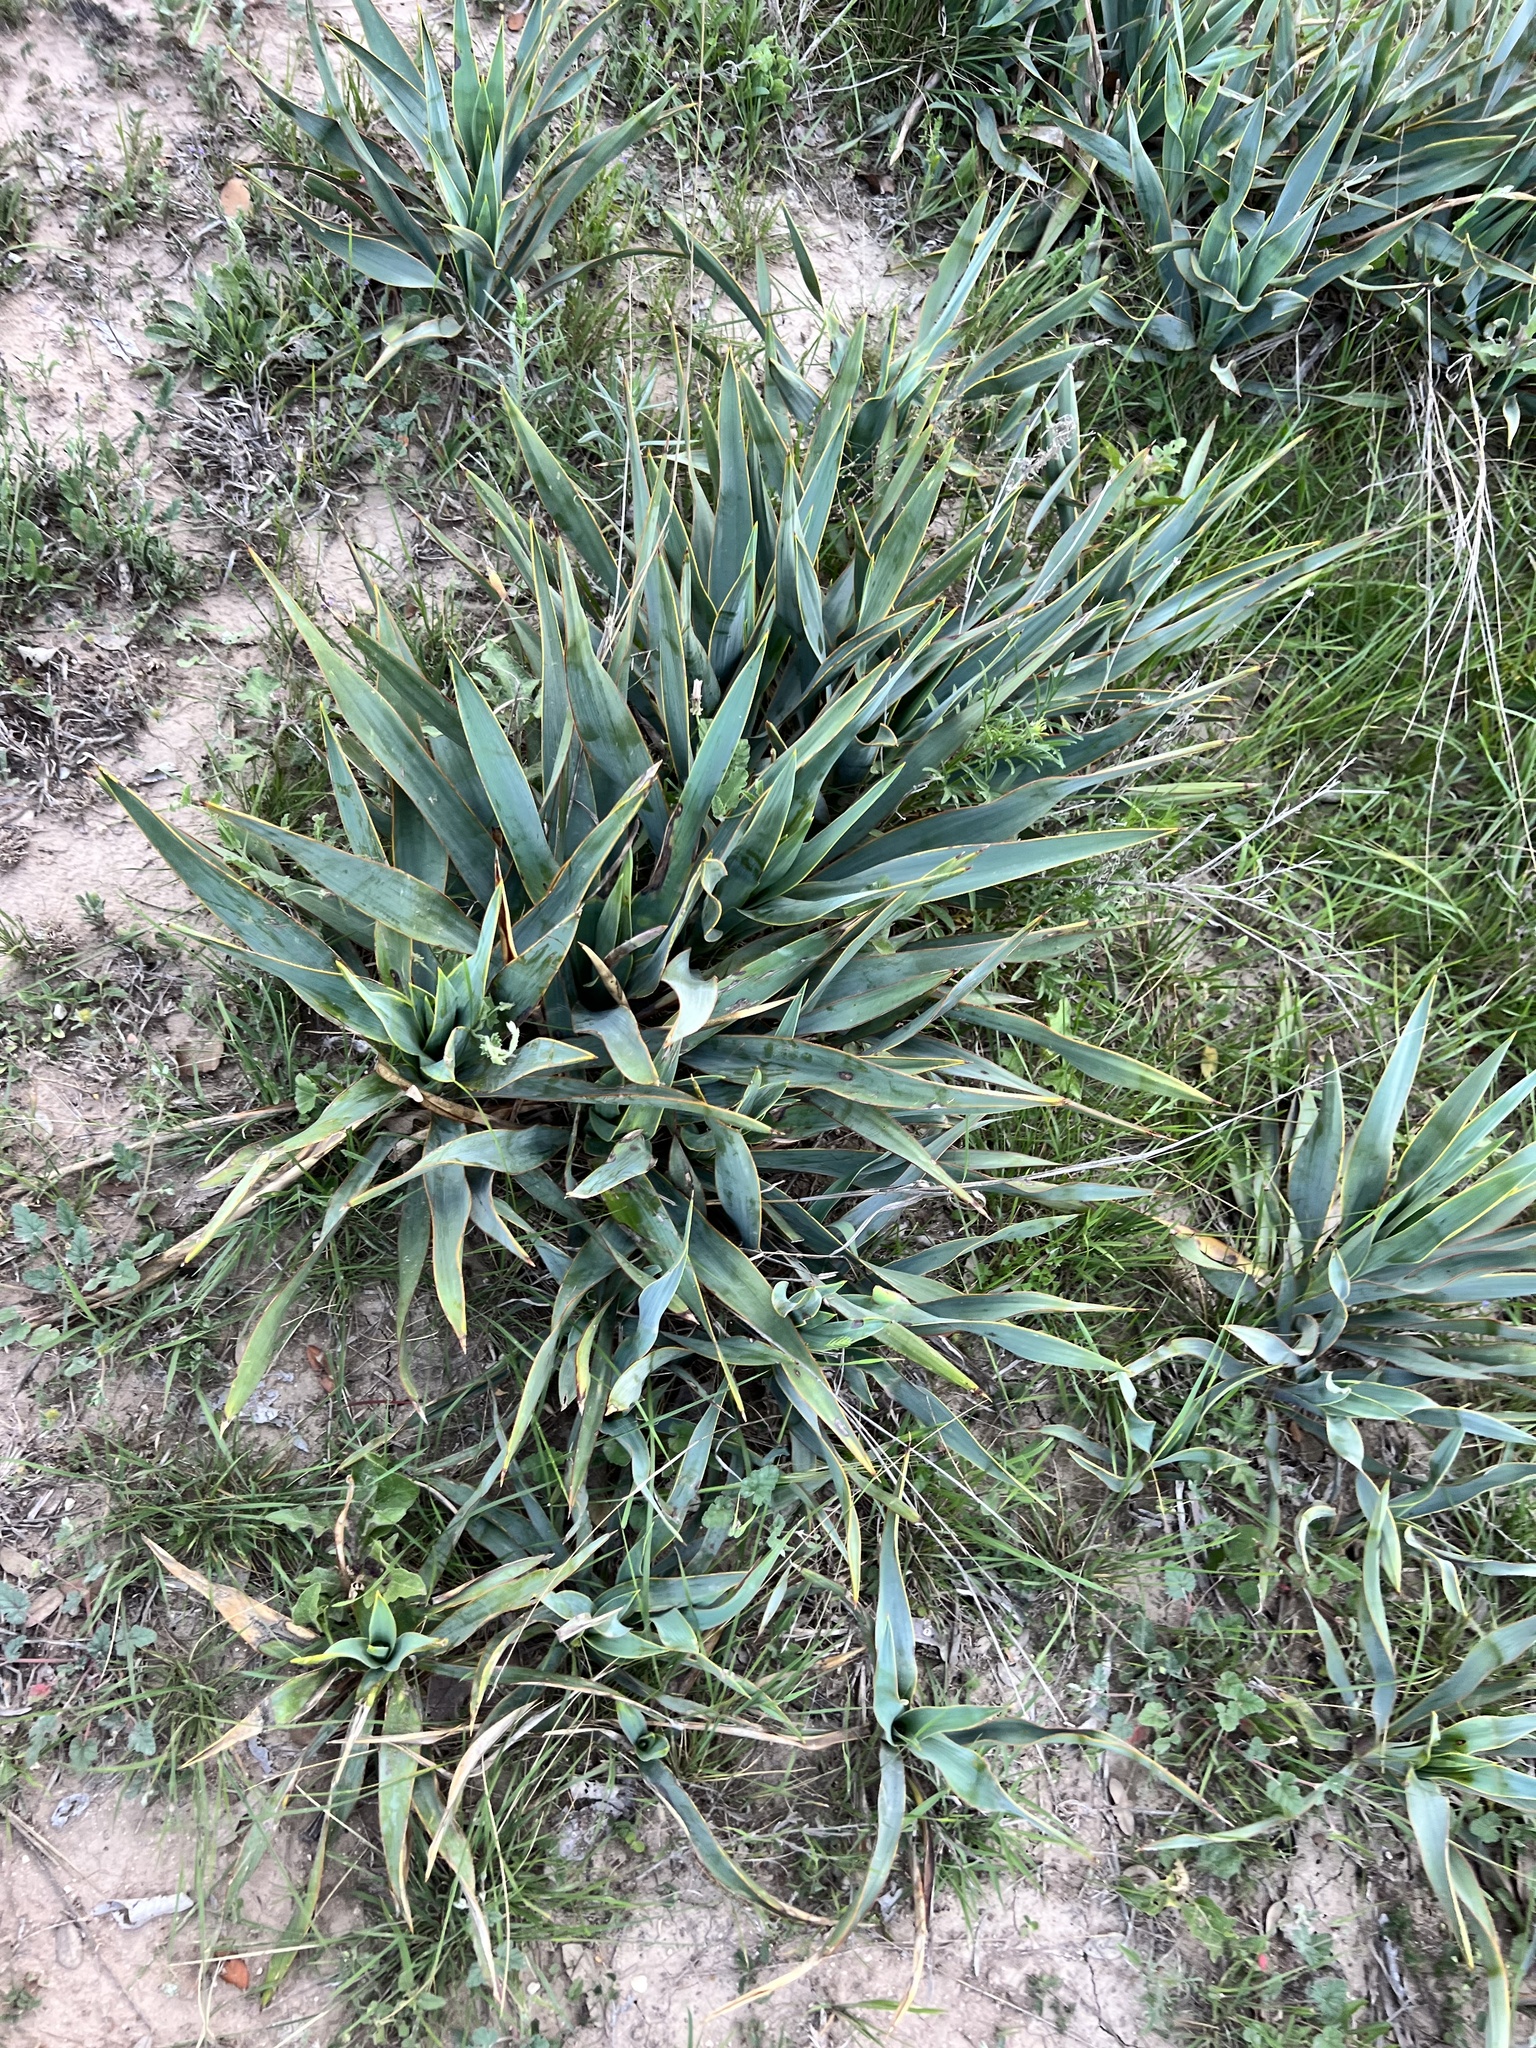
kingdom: Plantae
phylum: Tracheophyta
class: Liliopsida
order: Asparagales
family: Asparagaceae
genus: Yucca
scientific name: Yucca pallida
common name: Pale leaf yucca
